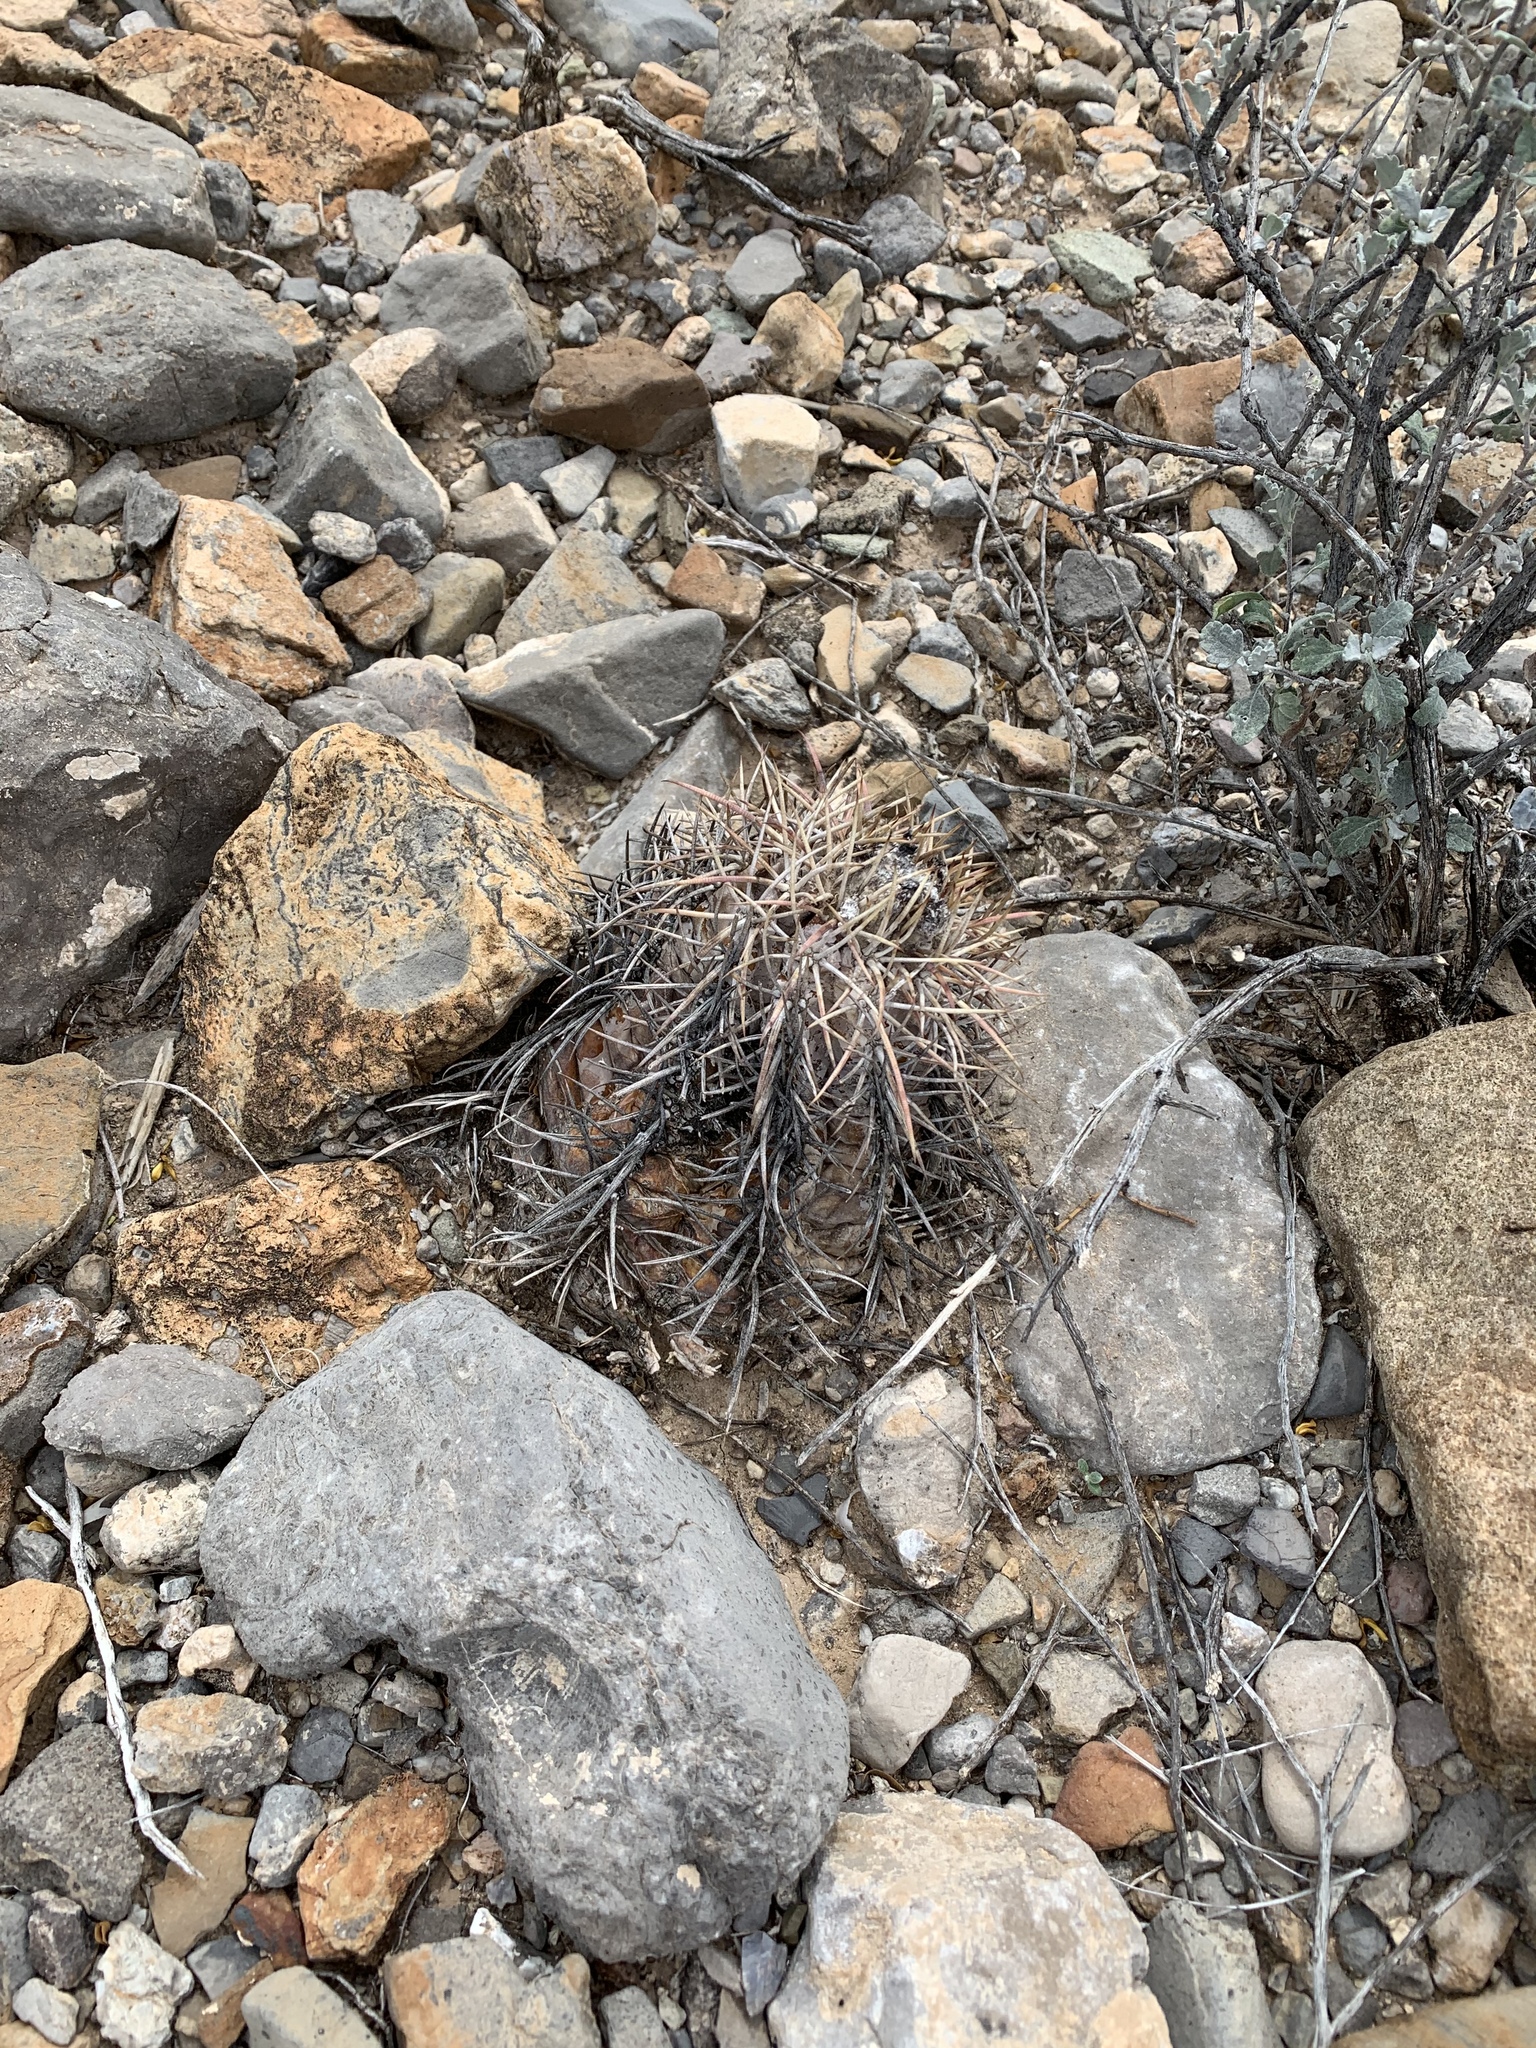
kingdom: Plantae
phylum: Tracheophyta
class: Magnoliopsida
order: Caryophyllales
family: Cactaceae
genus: Echinocactus
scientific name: Echinocactus horizonthalonius
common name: Devilshead
